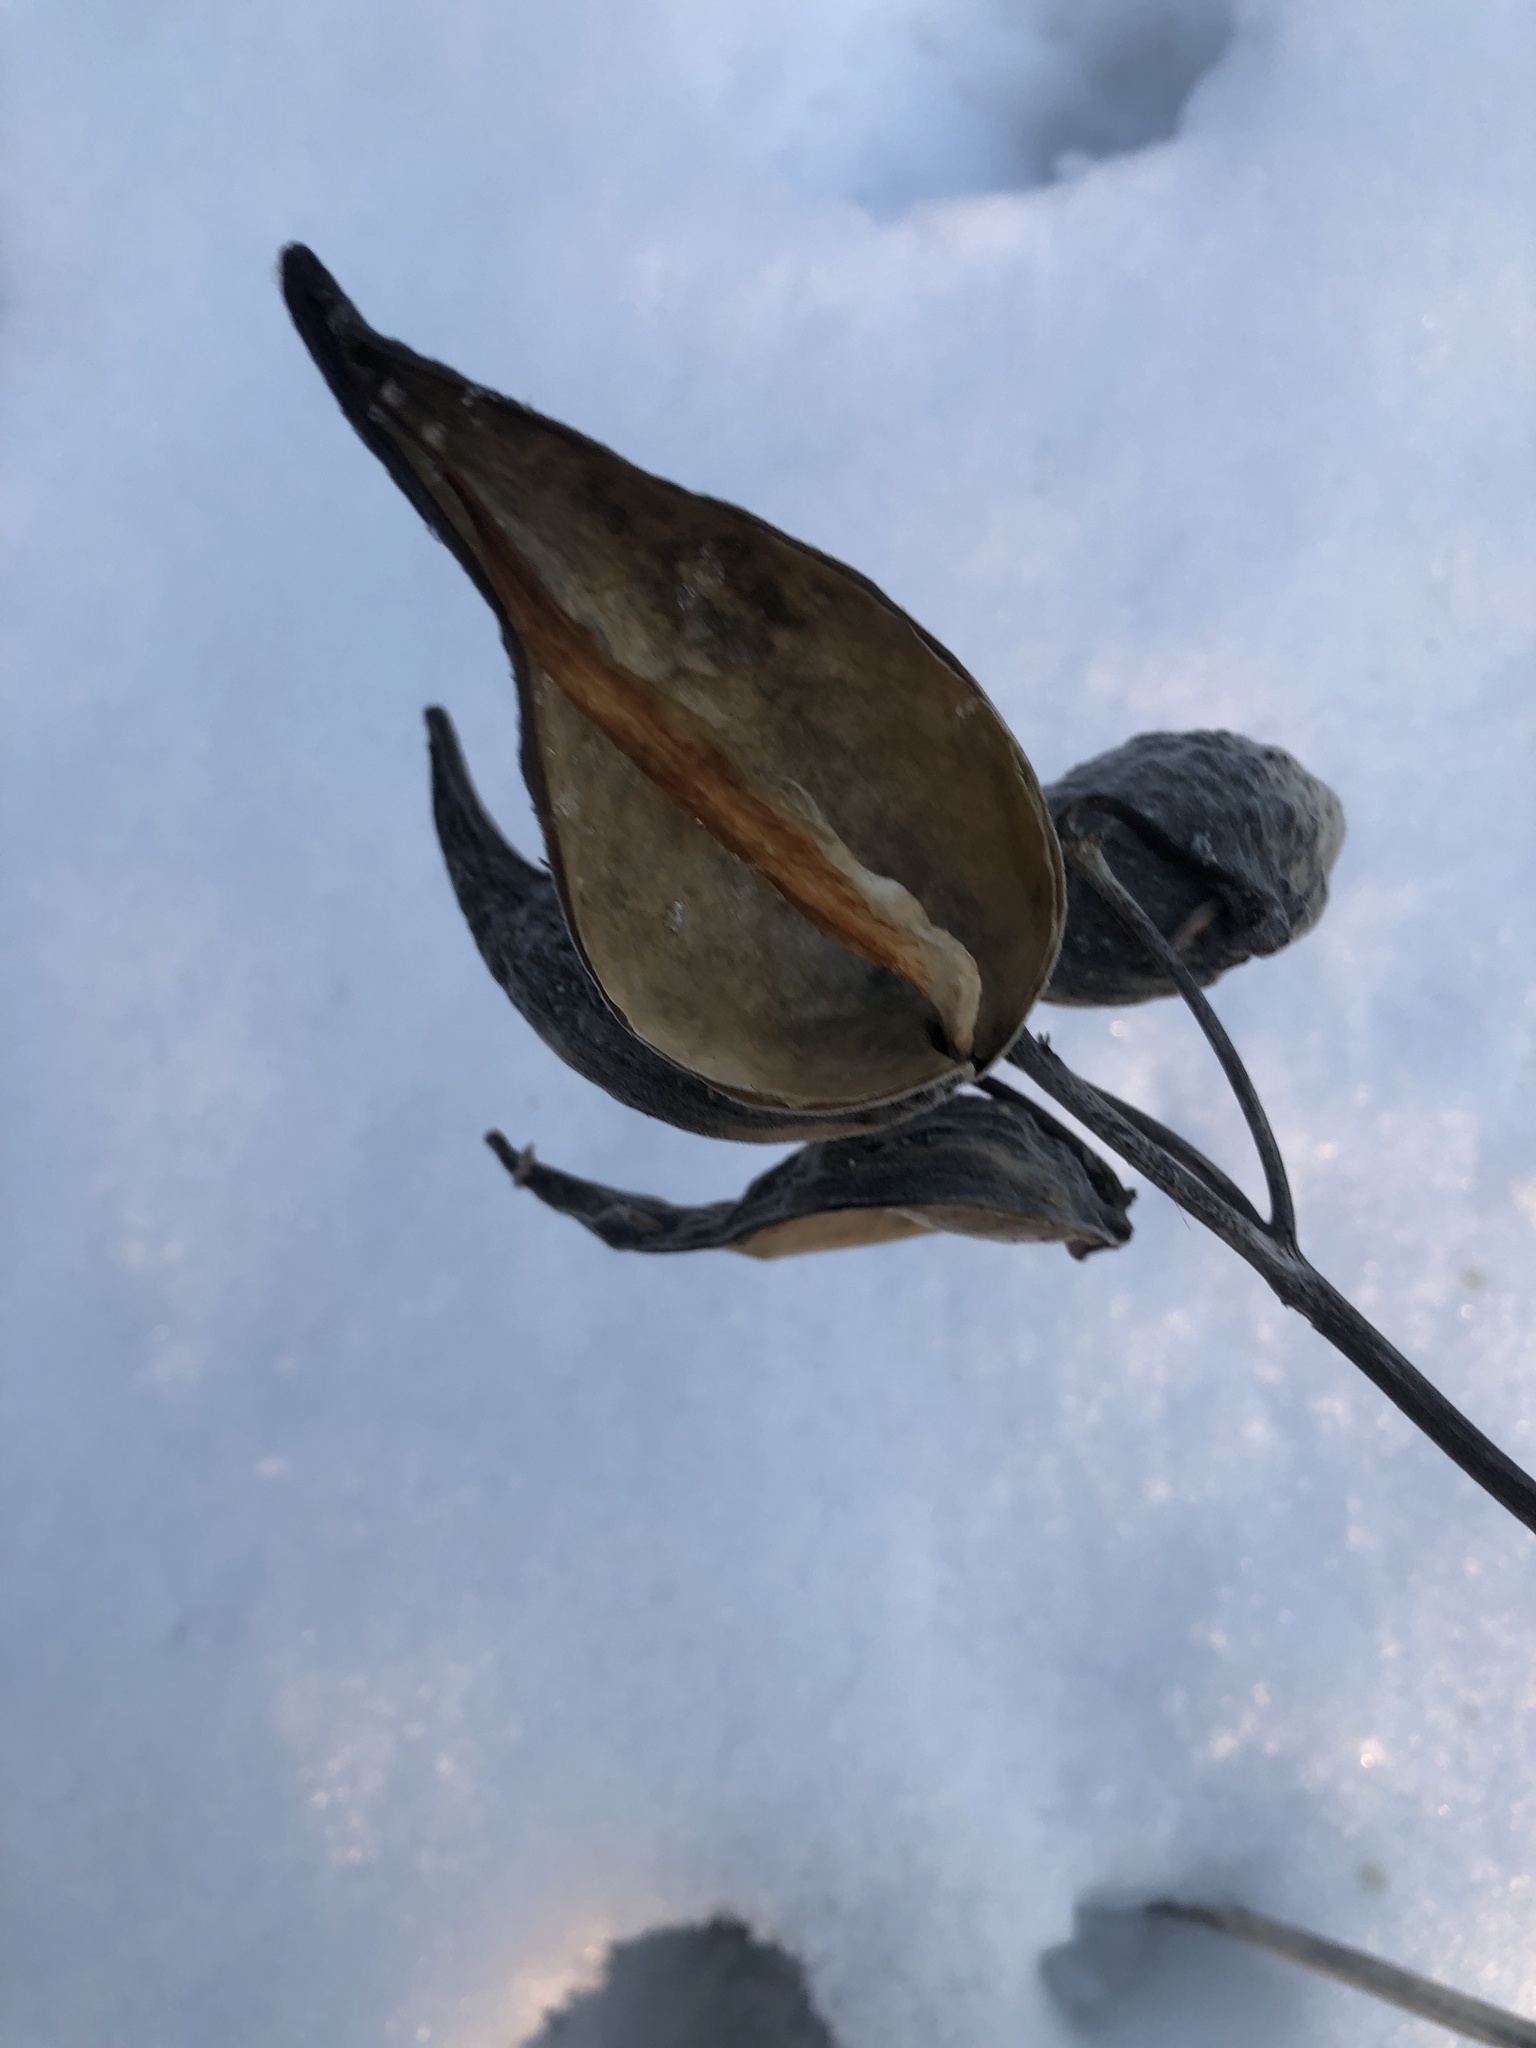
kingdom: Plantae
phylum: Tracheophyta
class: Magnoliopsida
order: Gentianales
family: Apocynaceae
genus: Asclepias
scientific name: Asclepias syriaca
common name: Common milkweed
